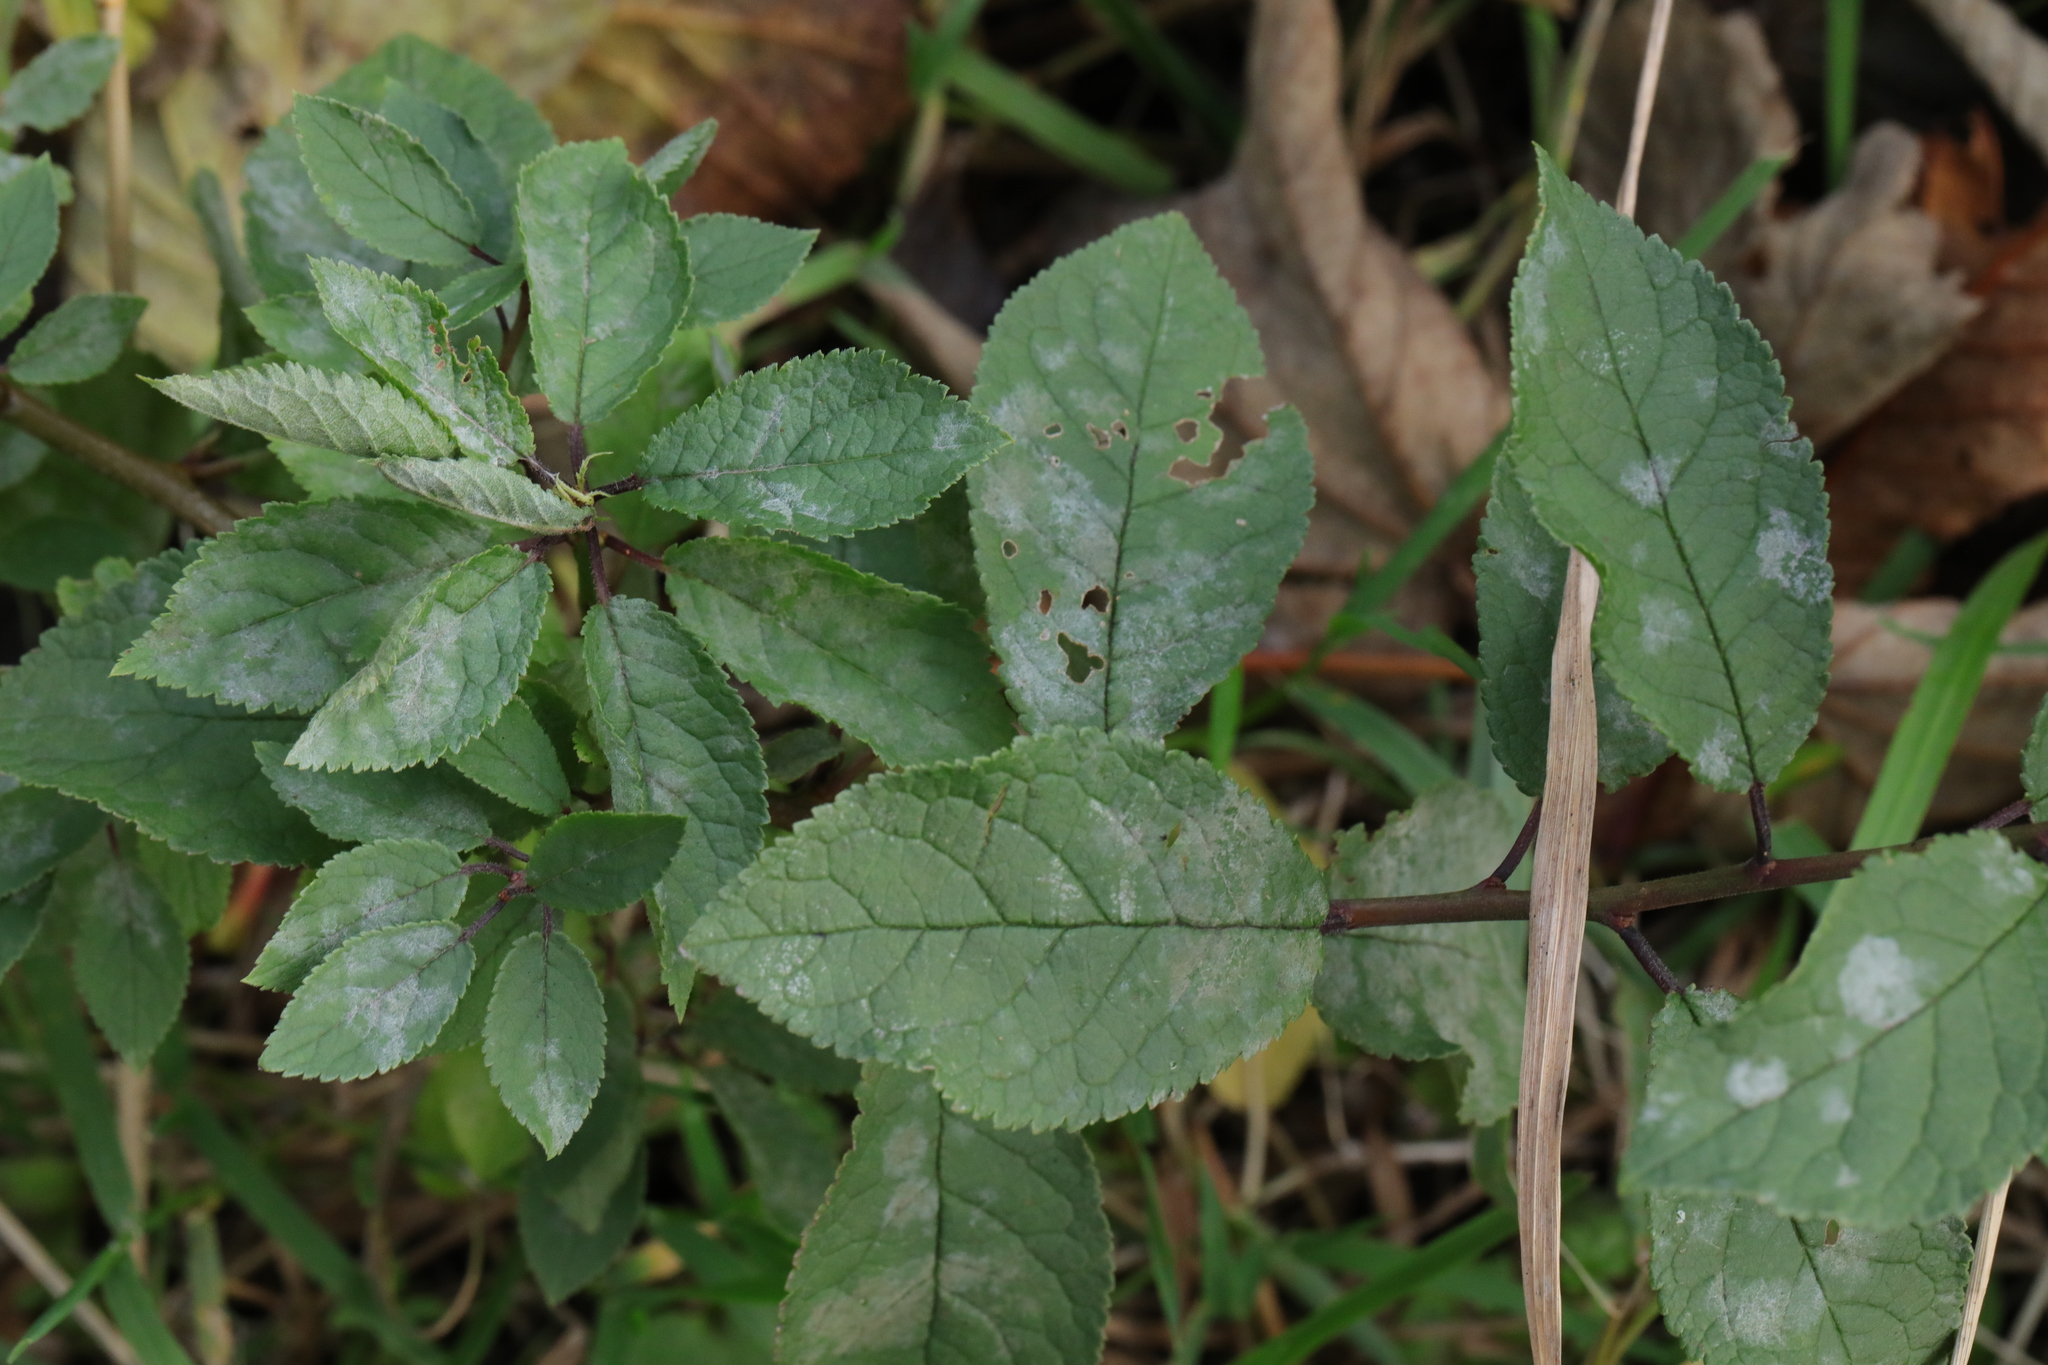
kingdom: Fungi
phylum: Ascomycota
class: Leotiomycetes
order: Helotiales
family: Erysiphaceae
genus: Erysiphe
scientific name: Erysiphe prunastri
